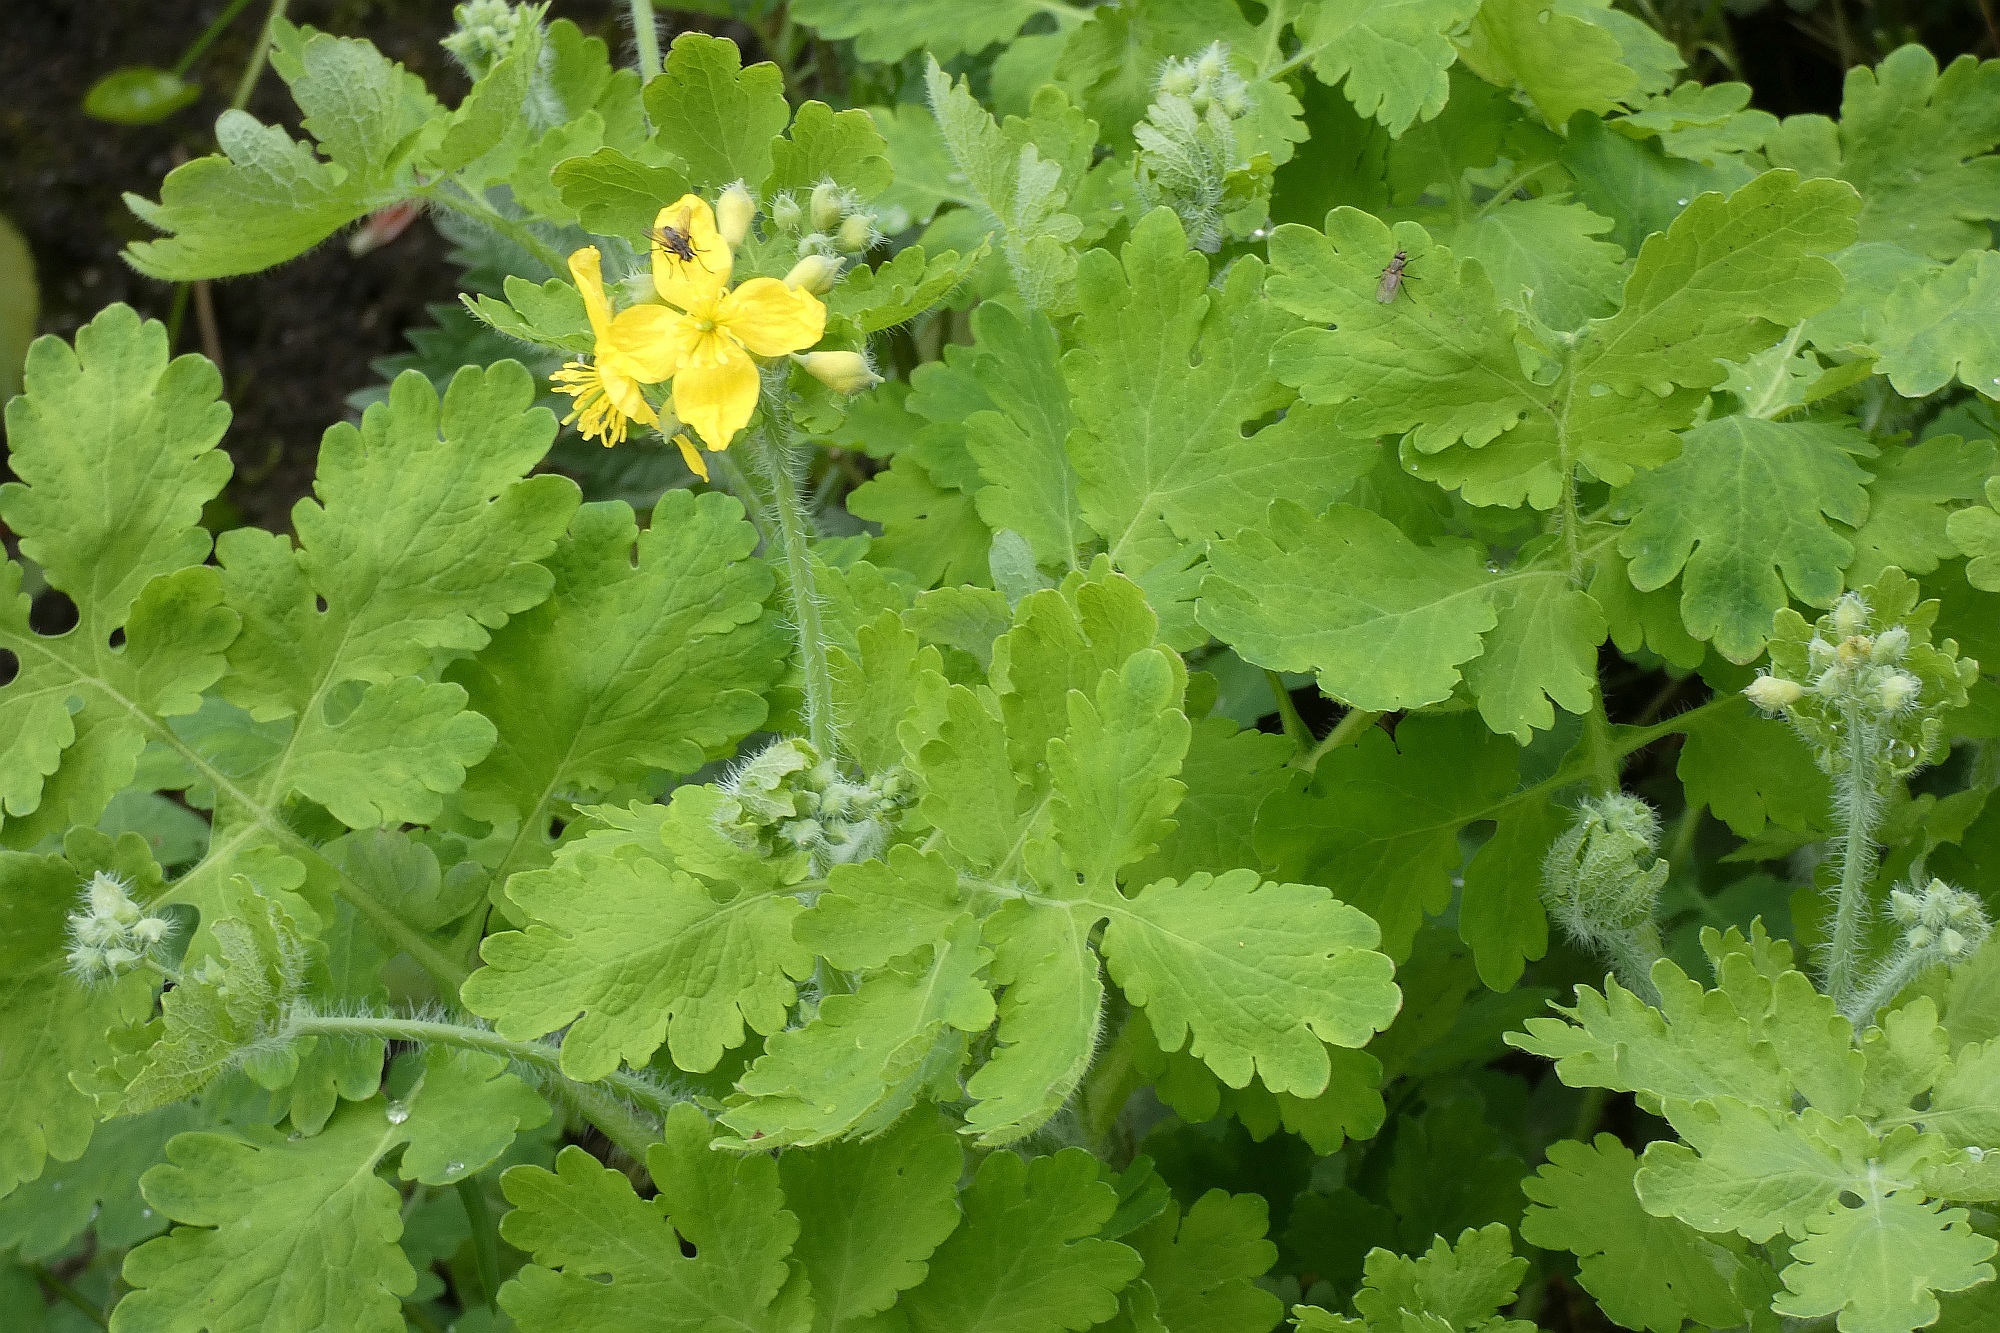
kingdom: Plantae
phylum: Tracheophyta
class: Magnoliopsida
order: Ranunculales
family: Papaveraceae
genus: Chelidonium
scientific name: Chelidonium majus
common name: Greater celandine
